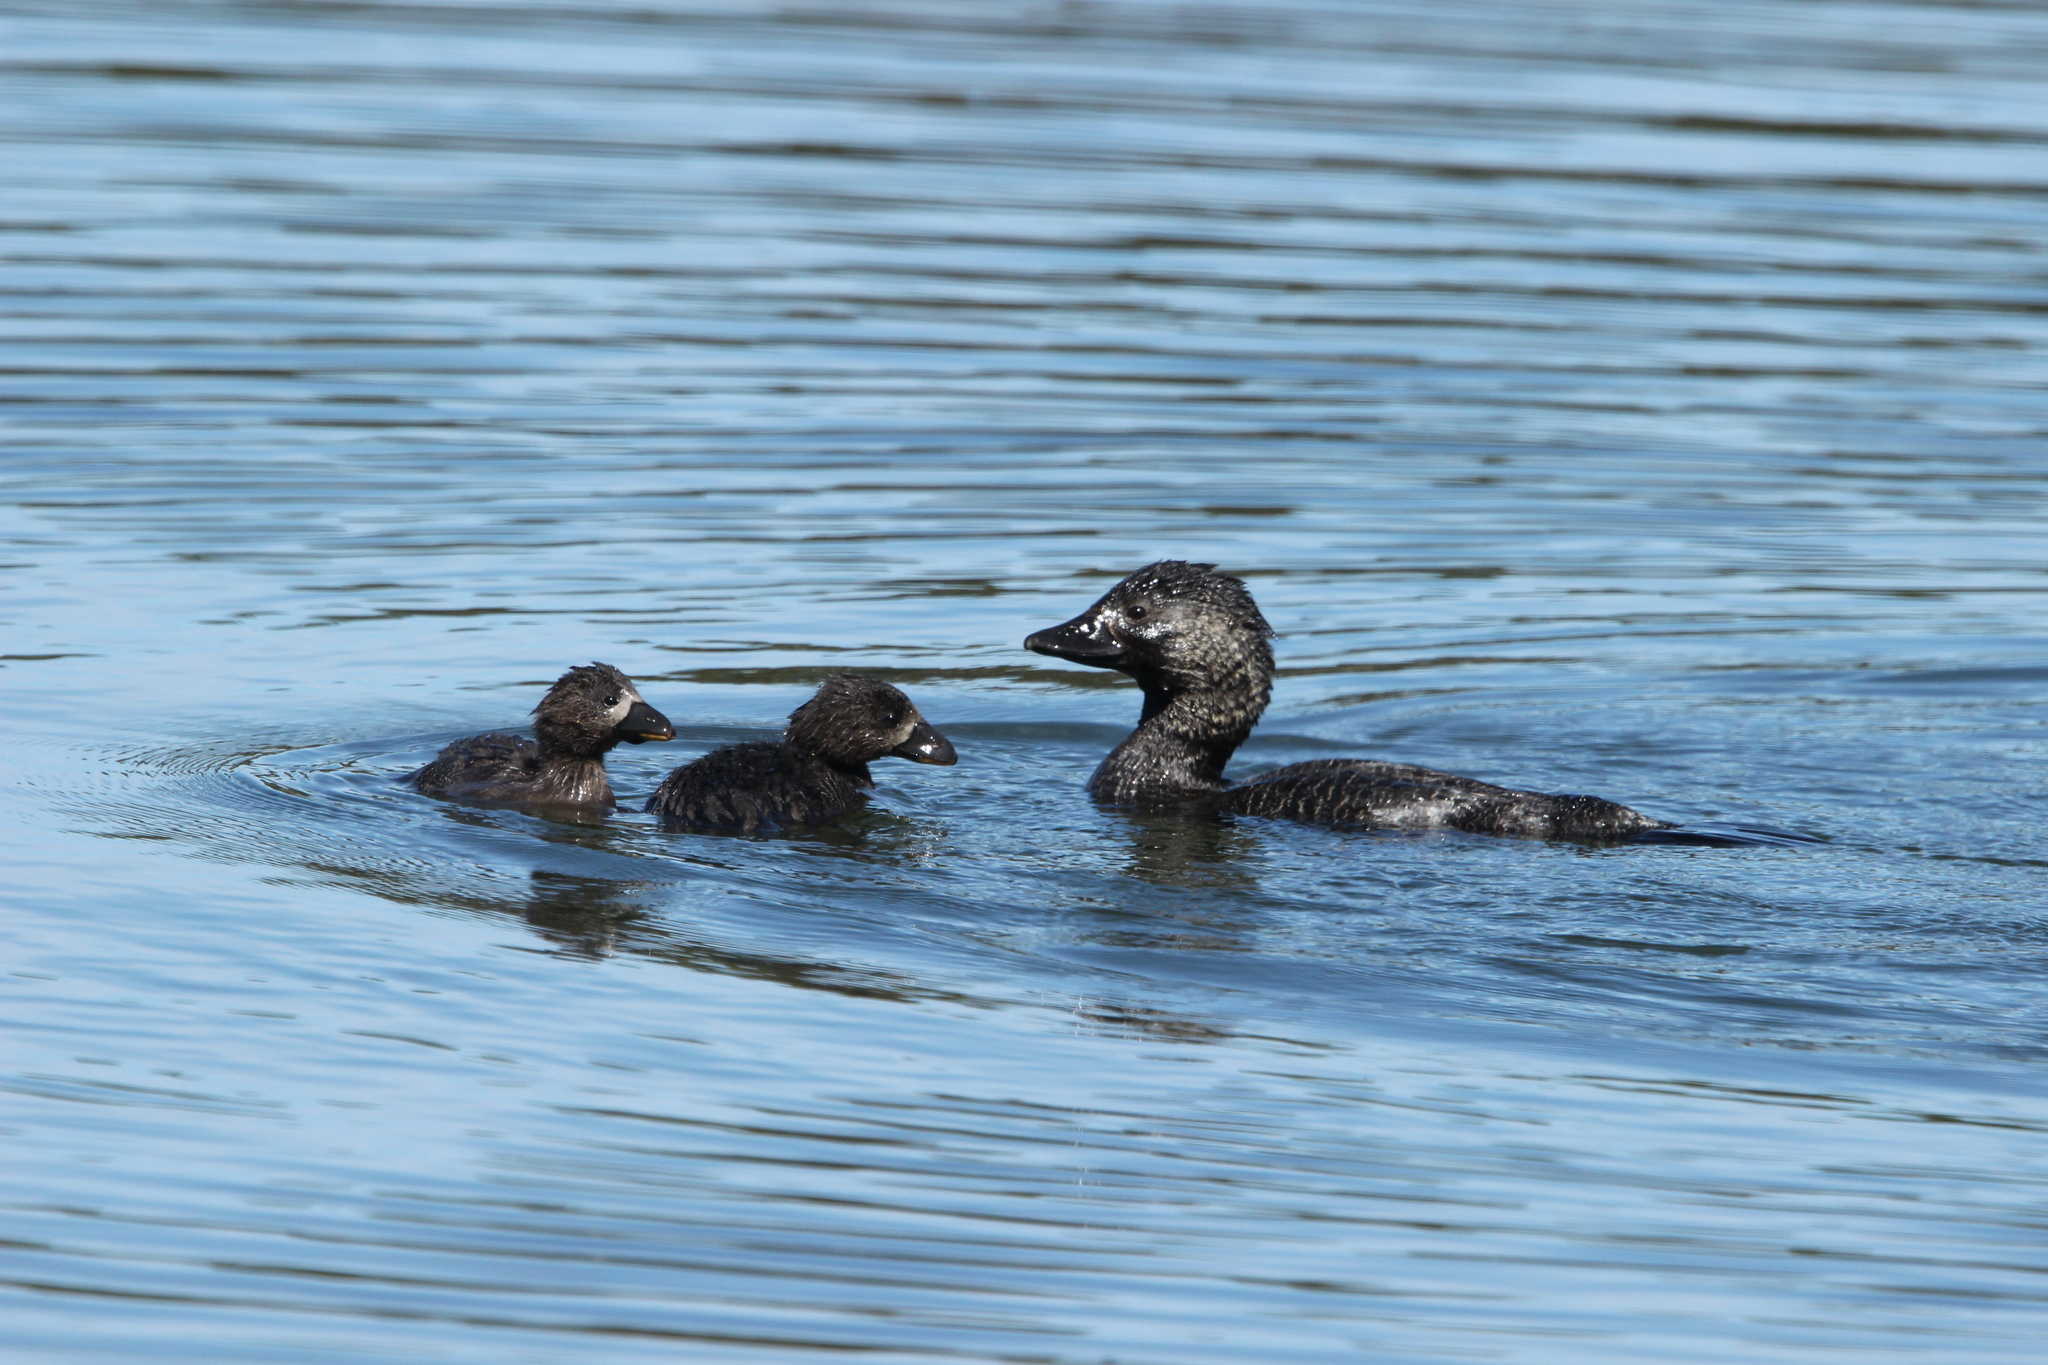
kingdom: Animalia
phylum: Chordata
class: Aves
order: Anseriformes
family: Anatidae
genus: Biziura
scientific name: Biziura lobata
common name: Musk duck
